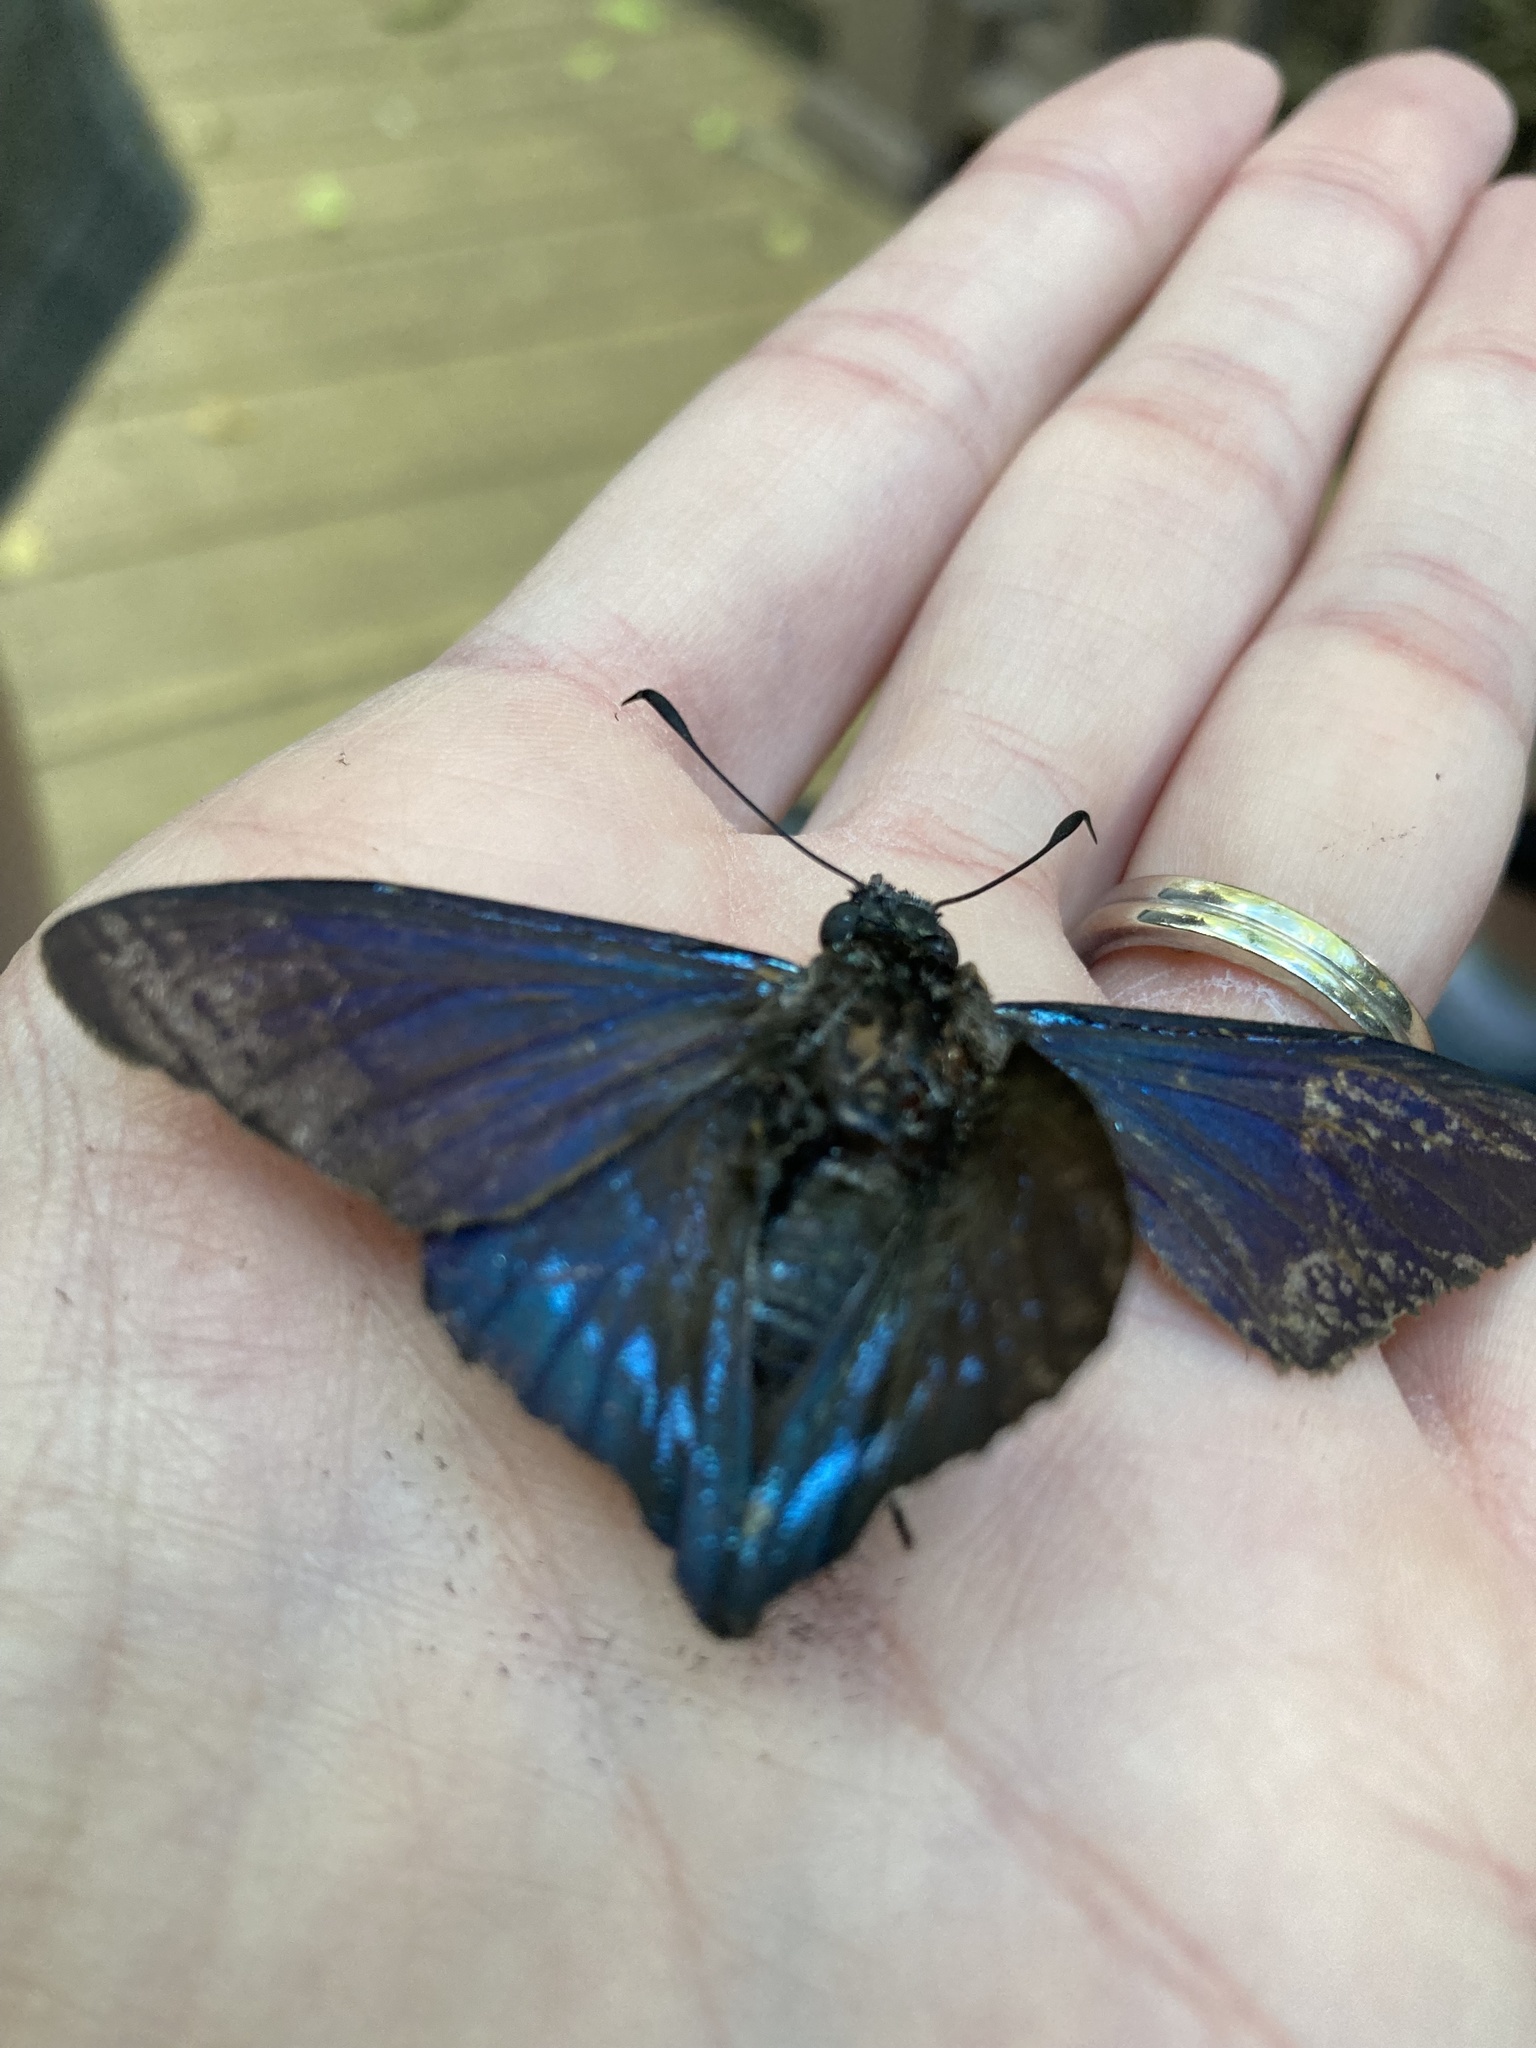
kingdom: Animalia
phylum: Arthropoda
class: Insecta
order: Lepidoptera
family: Hesperiidae
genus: Phocides
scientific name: Phocides pigmalion
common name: Mangrove skipper
